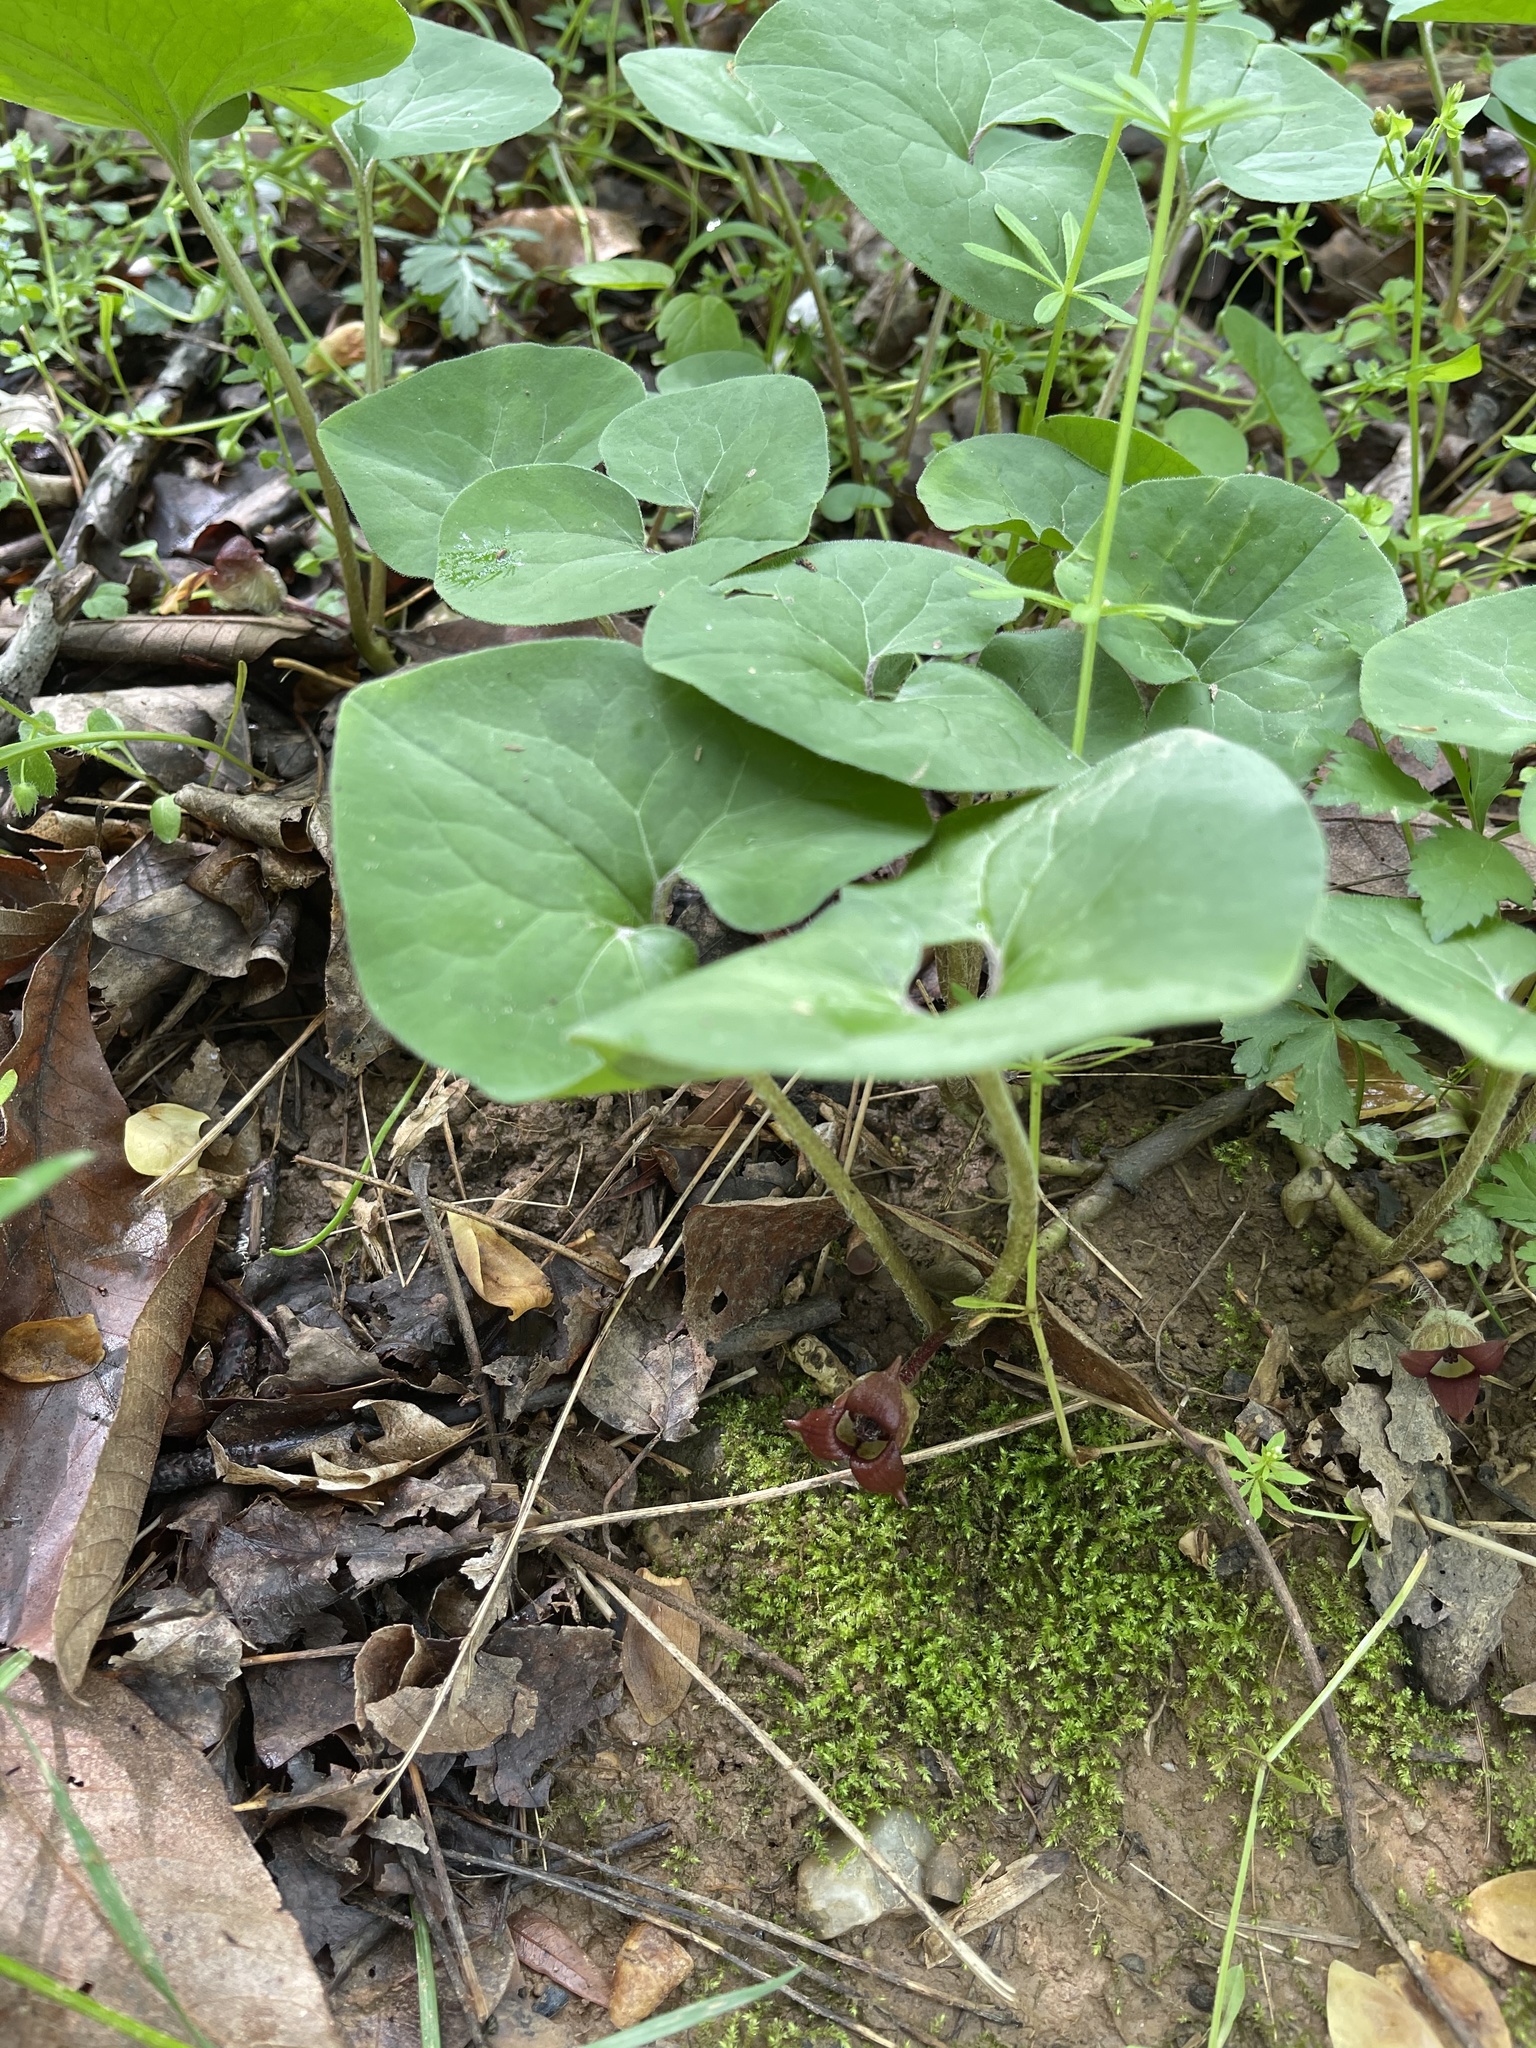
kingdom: Plantae
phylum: Tracheophyta
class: Magnoliopsida
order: Piperales
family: Aristolochiaceae
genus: Asarum
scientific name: Asarum canadense
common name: Wild ginger
